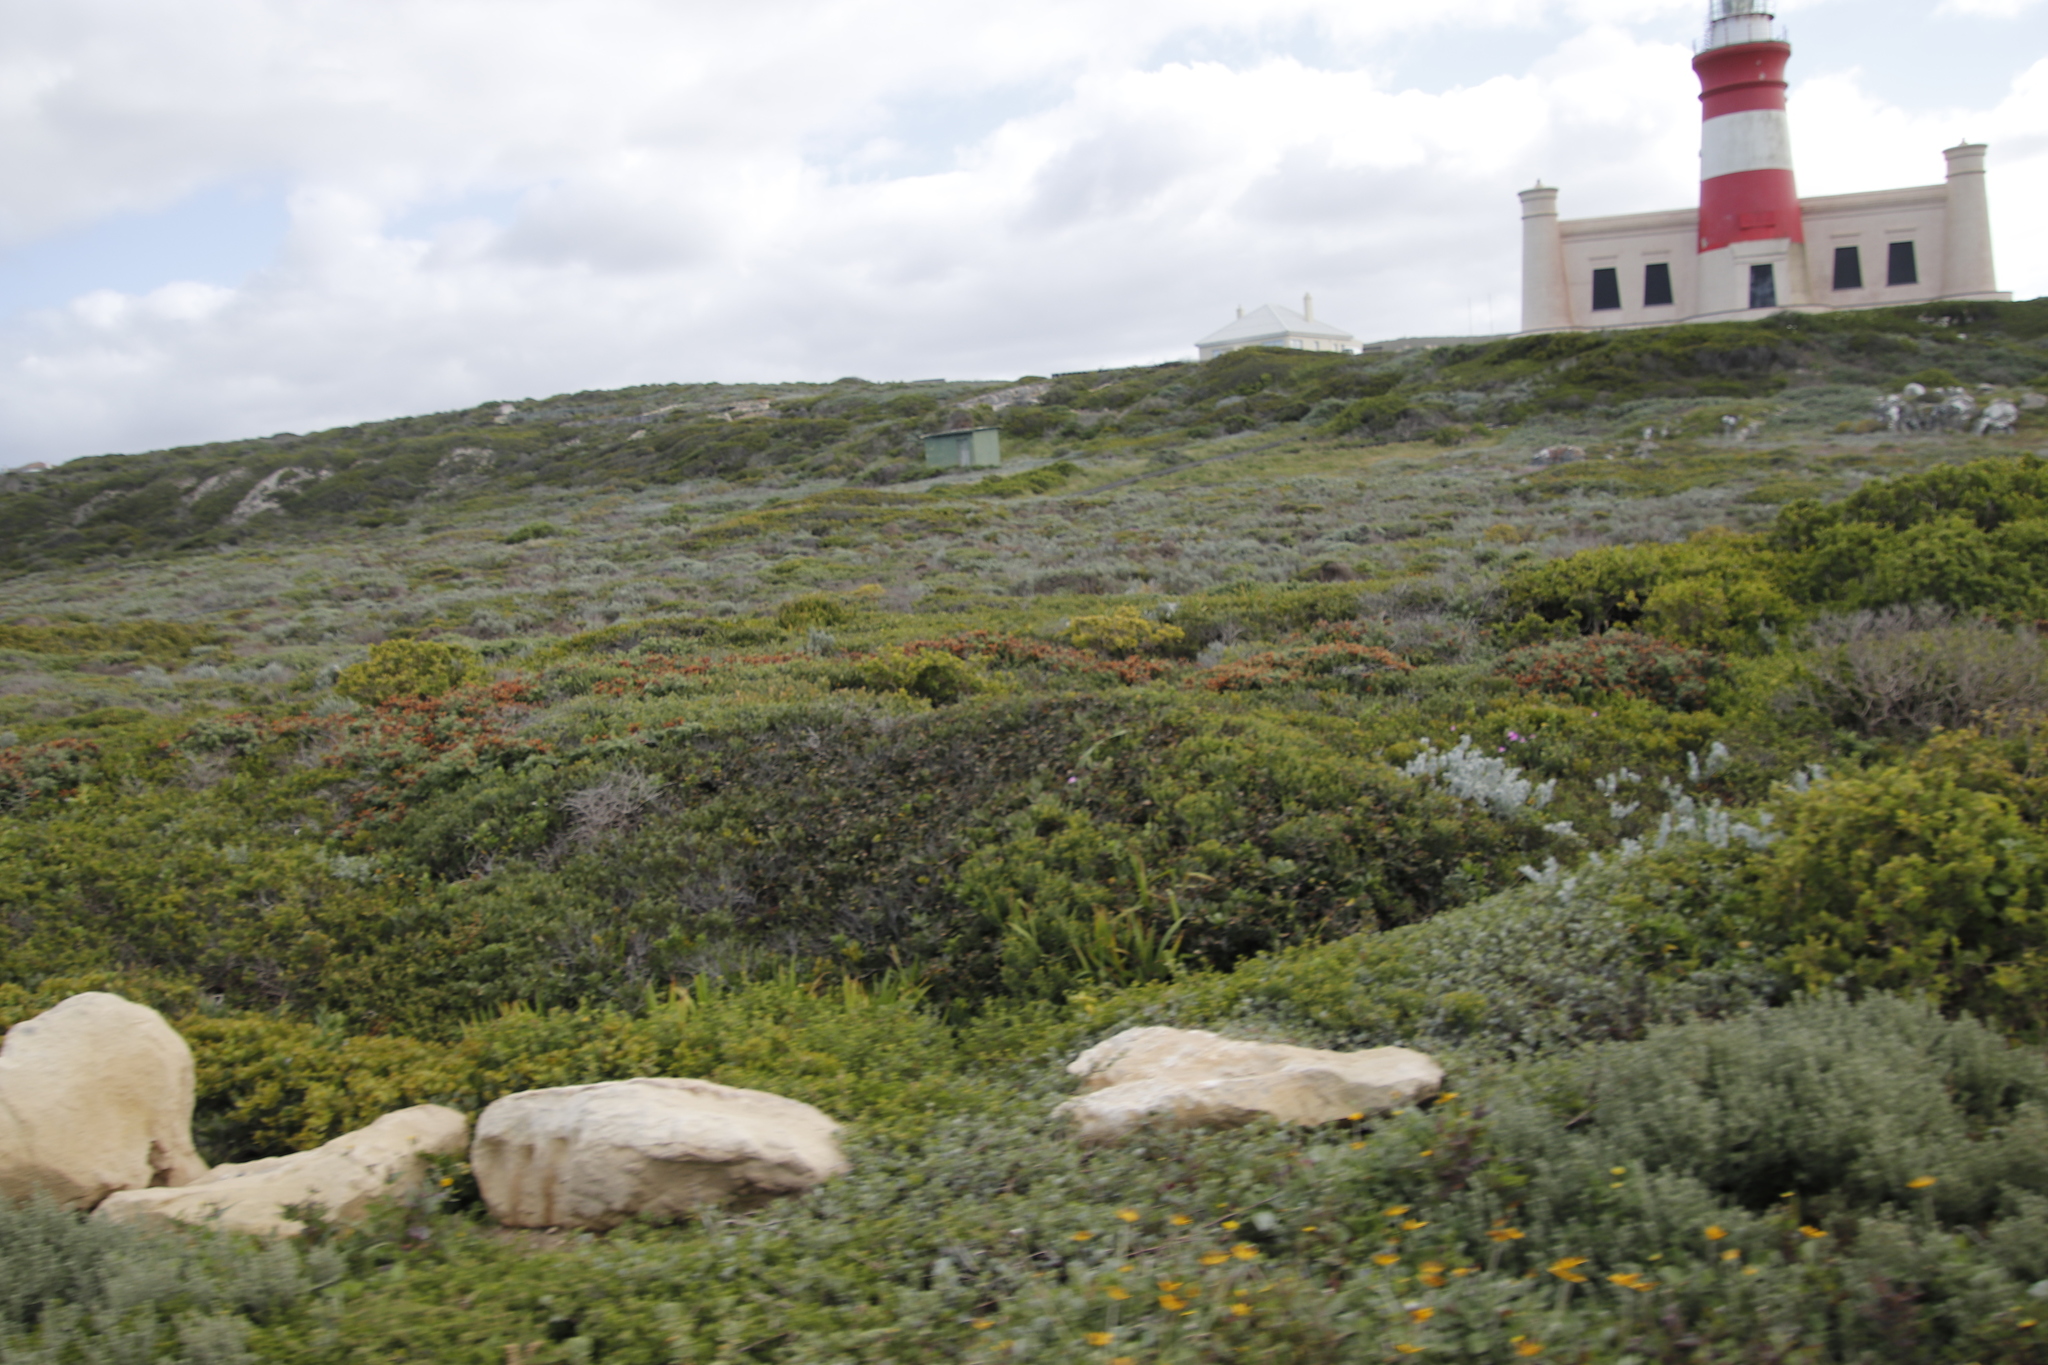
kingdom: Plantae
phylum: Tracheophyta
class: Magnoliopsida
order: Lamiales
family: Lamiaceae
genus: Salvia
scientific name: Salvia aurea
